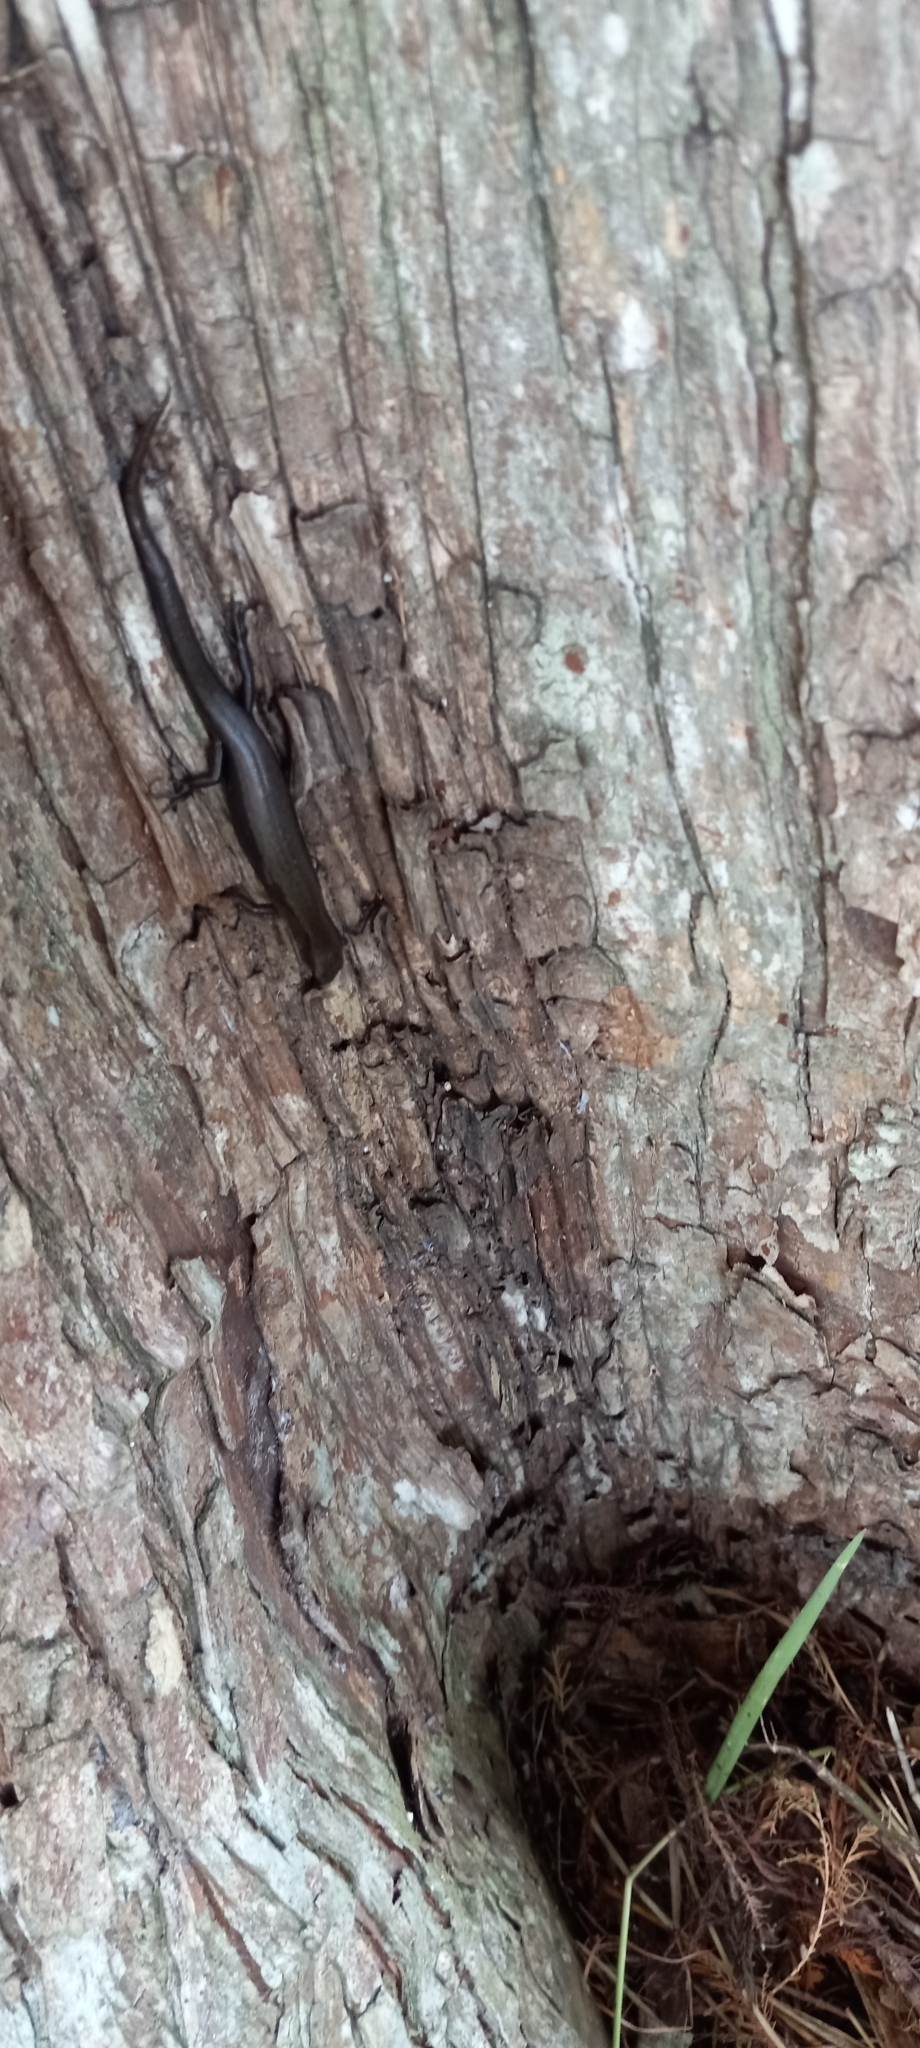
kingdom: Animalia
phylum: Chordata
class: Squamata
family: Scincidae
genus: Scincella
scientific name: Scincella lateralis
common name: Ground skink
